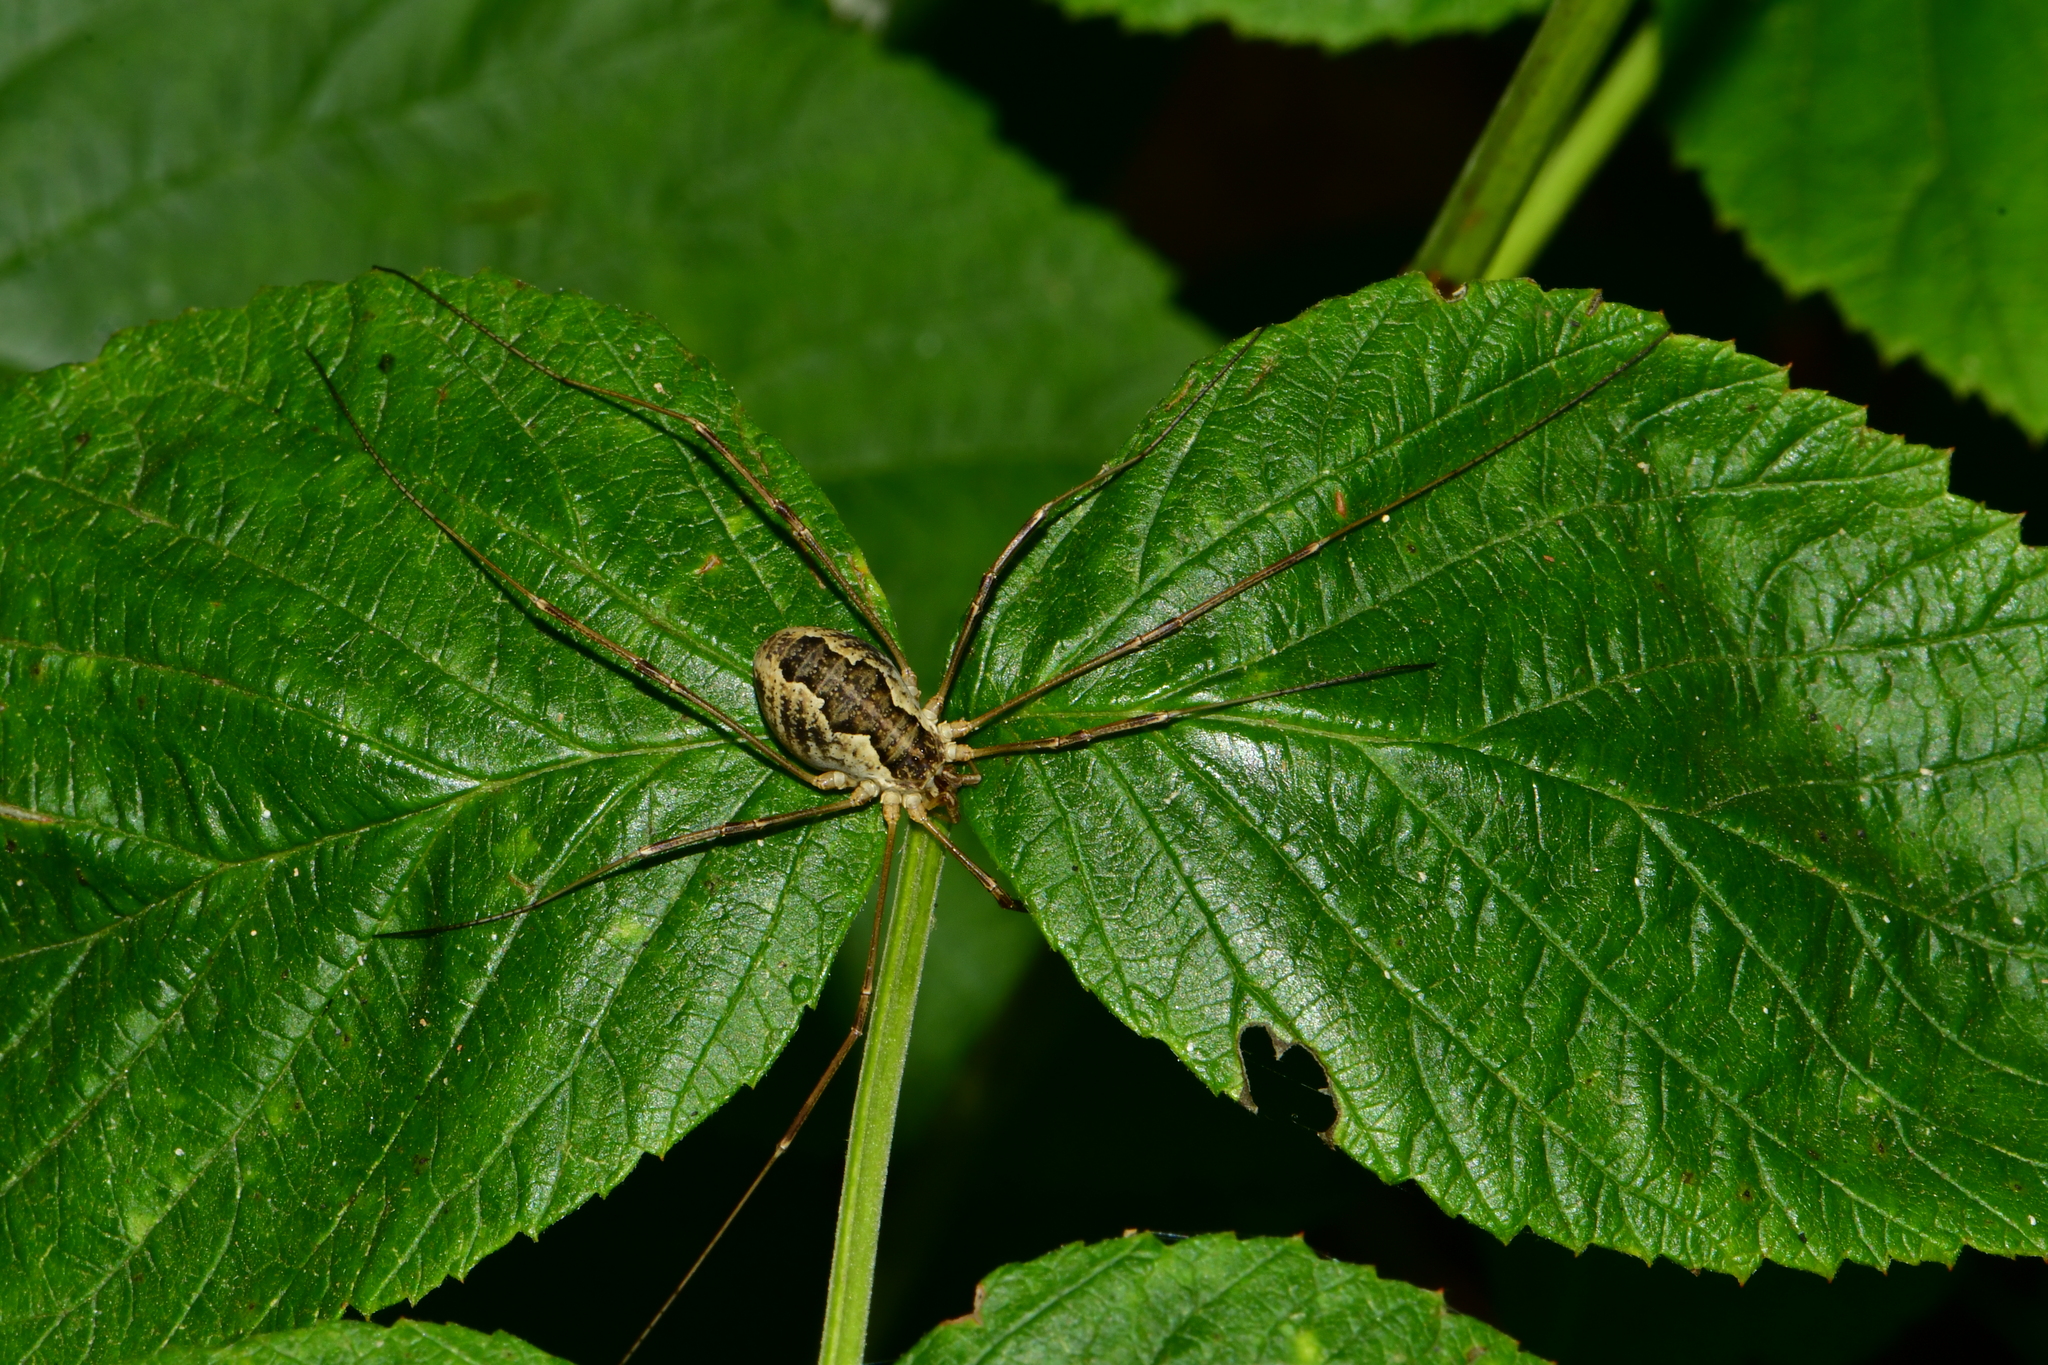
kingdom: Animalia
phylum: Arthropoda
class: Arachnida
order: Opiliones
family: Phalangiidae
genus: Mitopus
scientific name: Mitopus morio
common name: Saddleback harvestman
